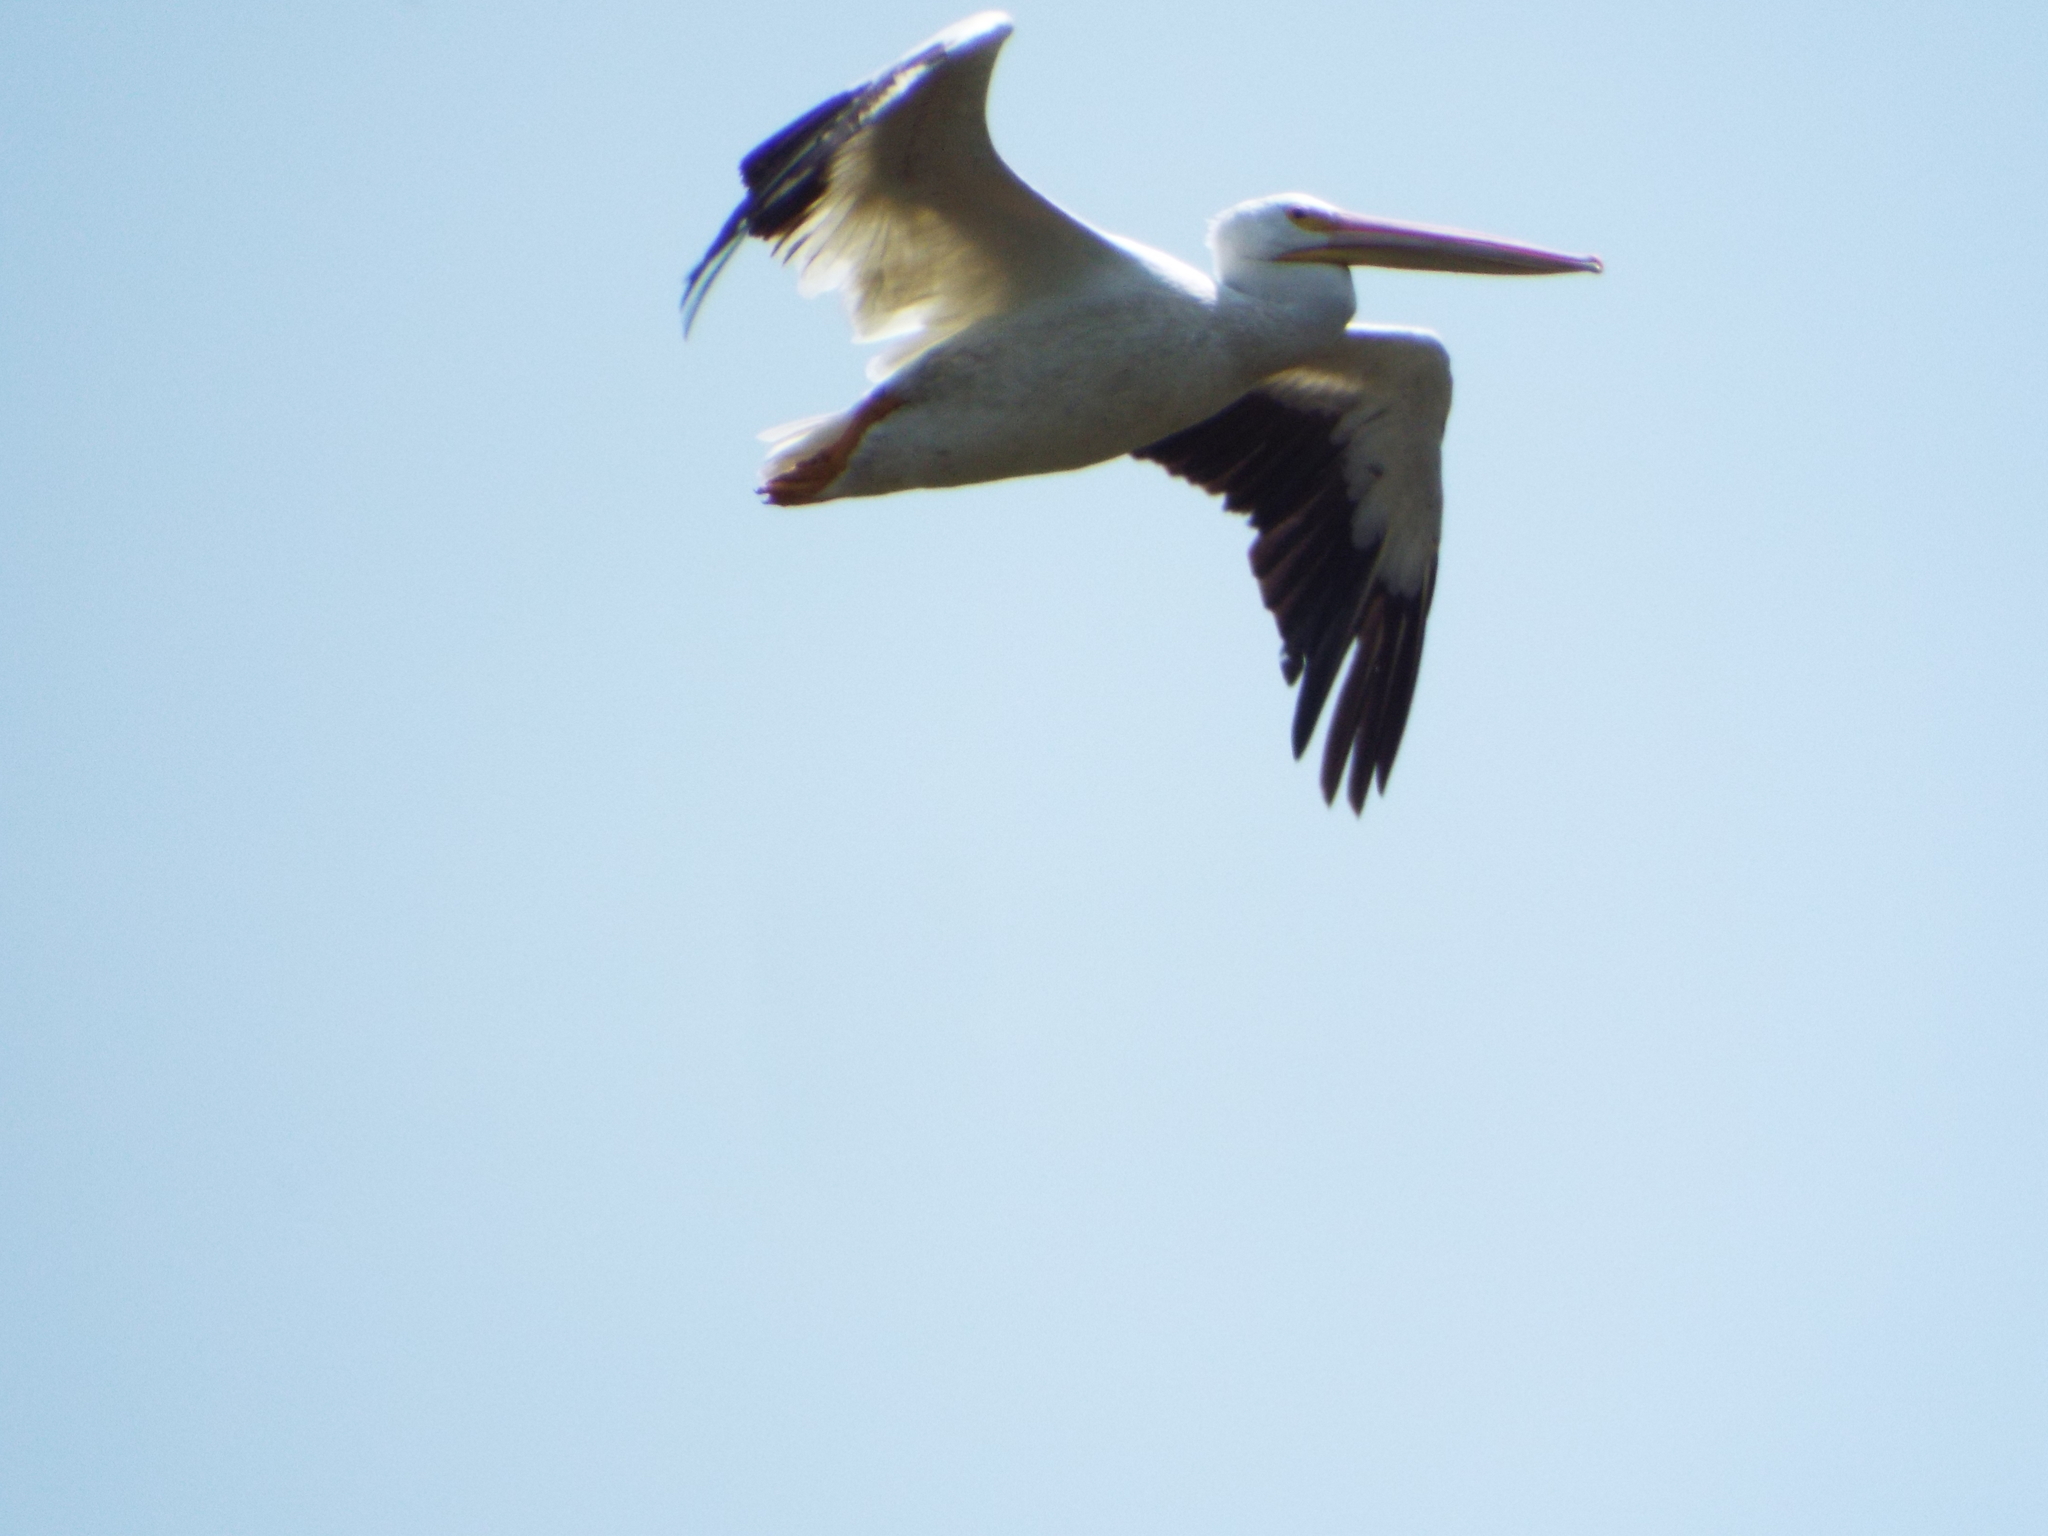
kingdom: Animalia
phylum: Chordata
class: Aves
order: Pelecaniformes
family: Pelecanidae
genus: Pelecanus
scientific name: Pelecanus erythrorhynchos
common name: American white pelican
